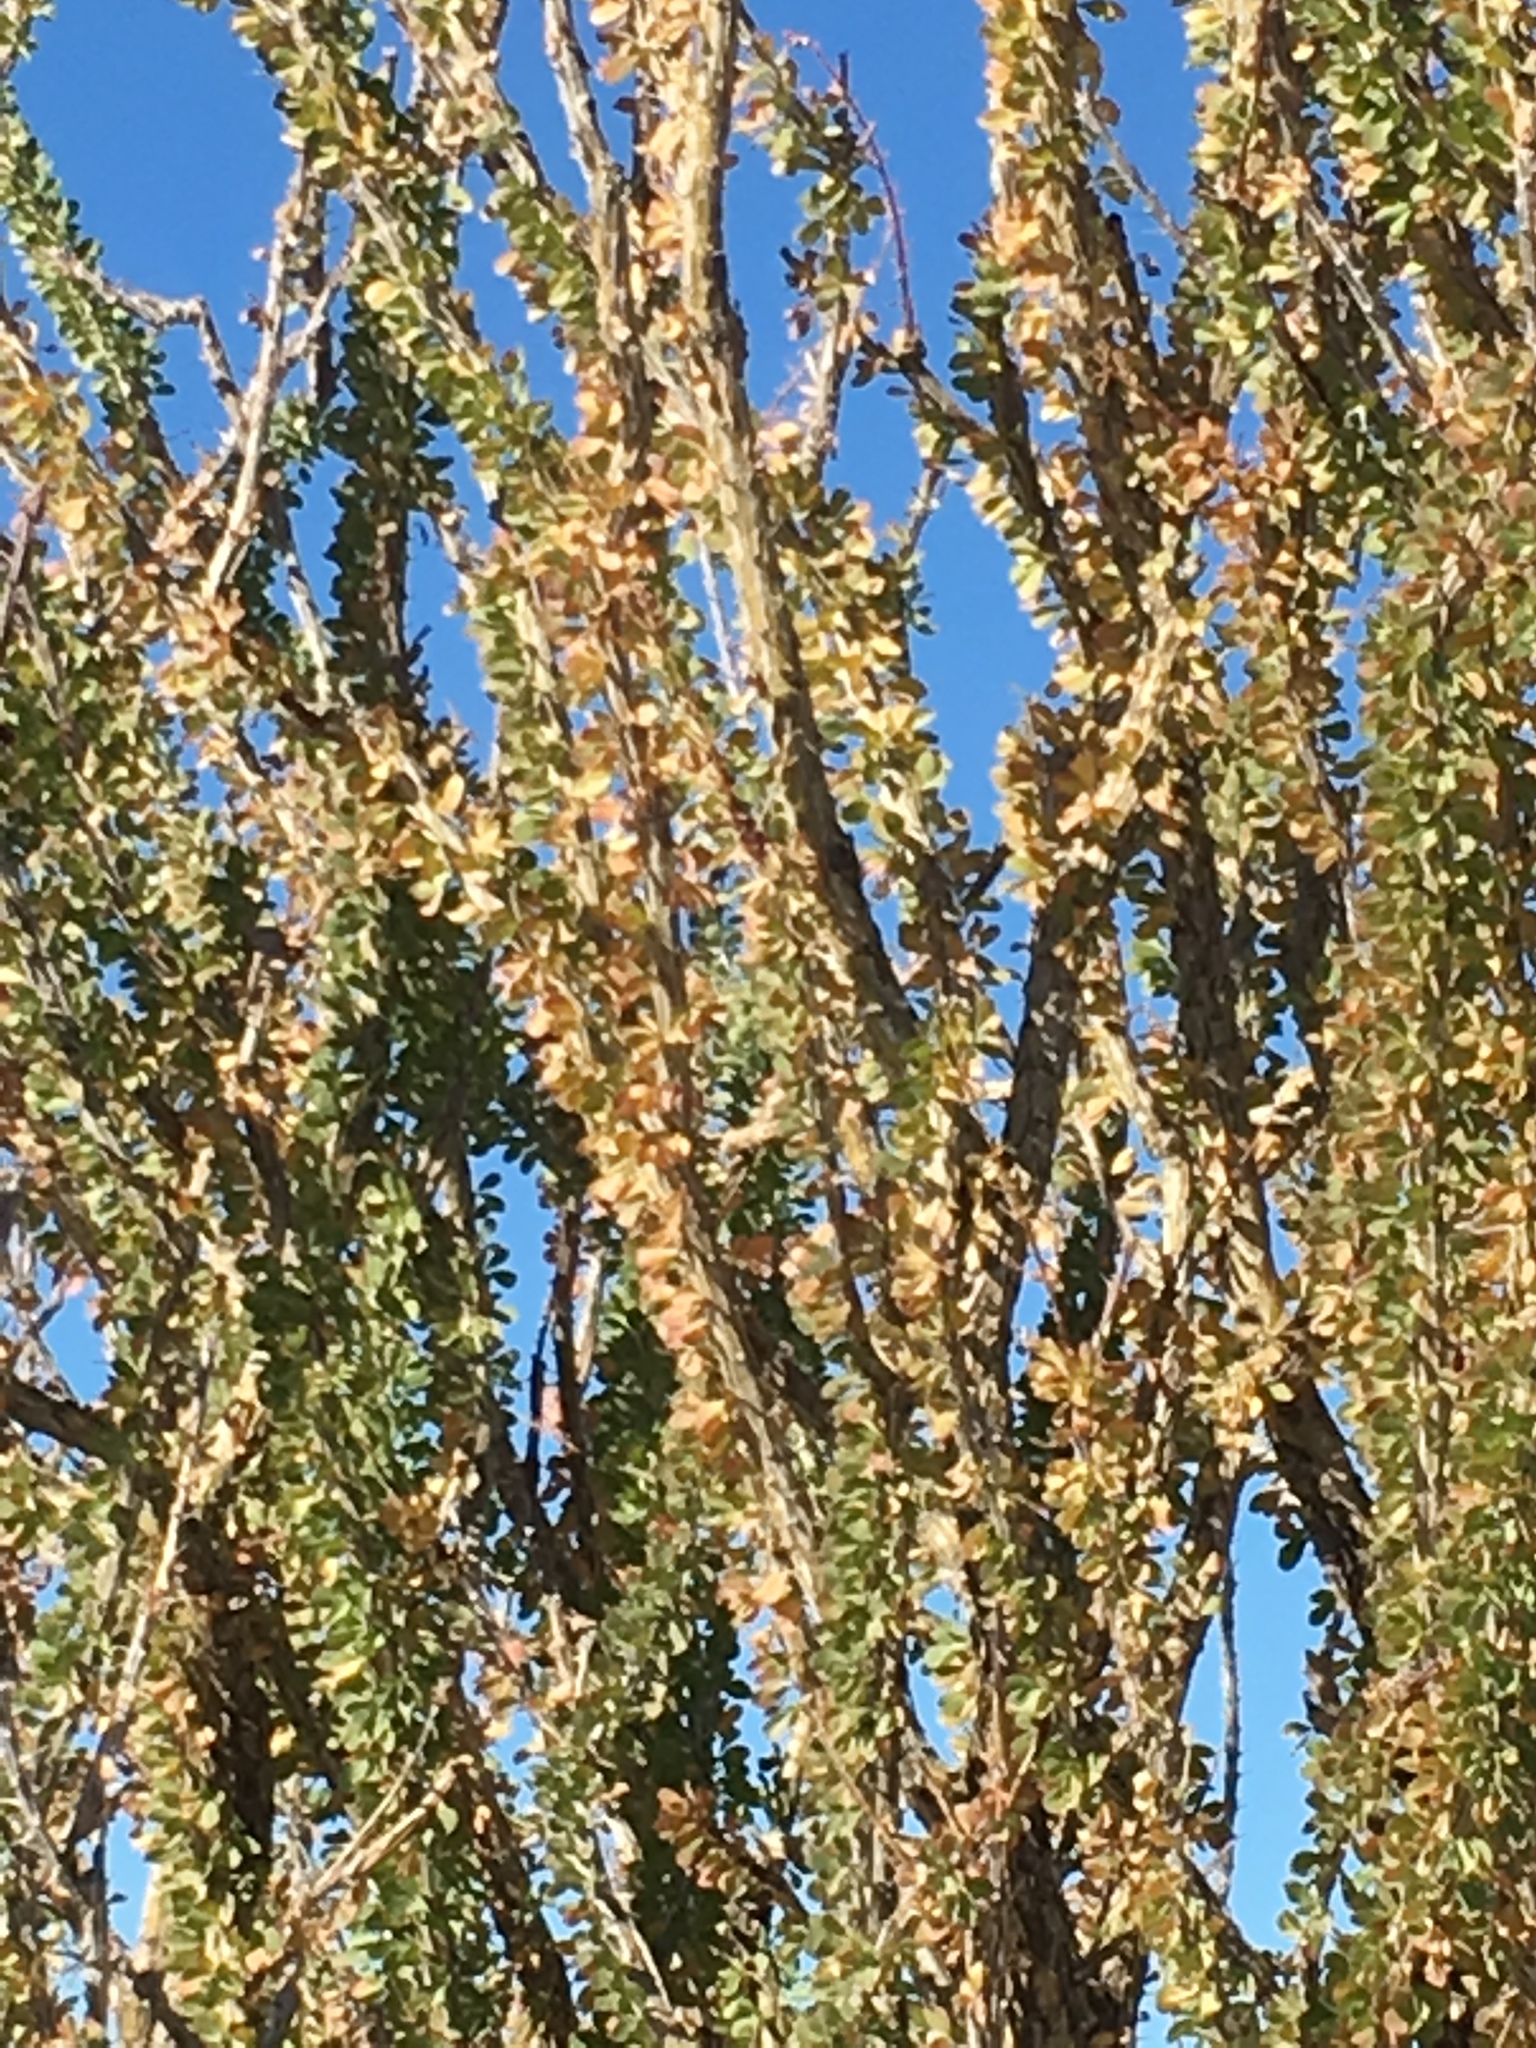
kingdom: Plantae
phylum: Tracheophyta
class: Magnoliopsida
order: Ericales
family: Fouquieriaceae
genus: Fouquieria
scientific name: Fouquieria splendens
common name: Vine-cactus
